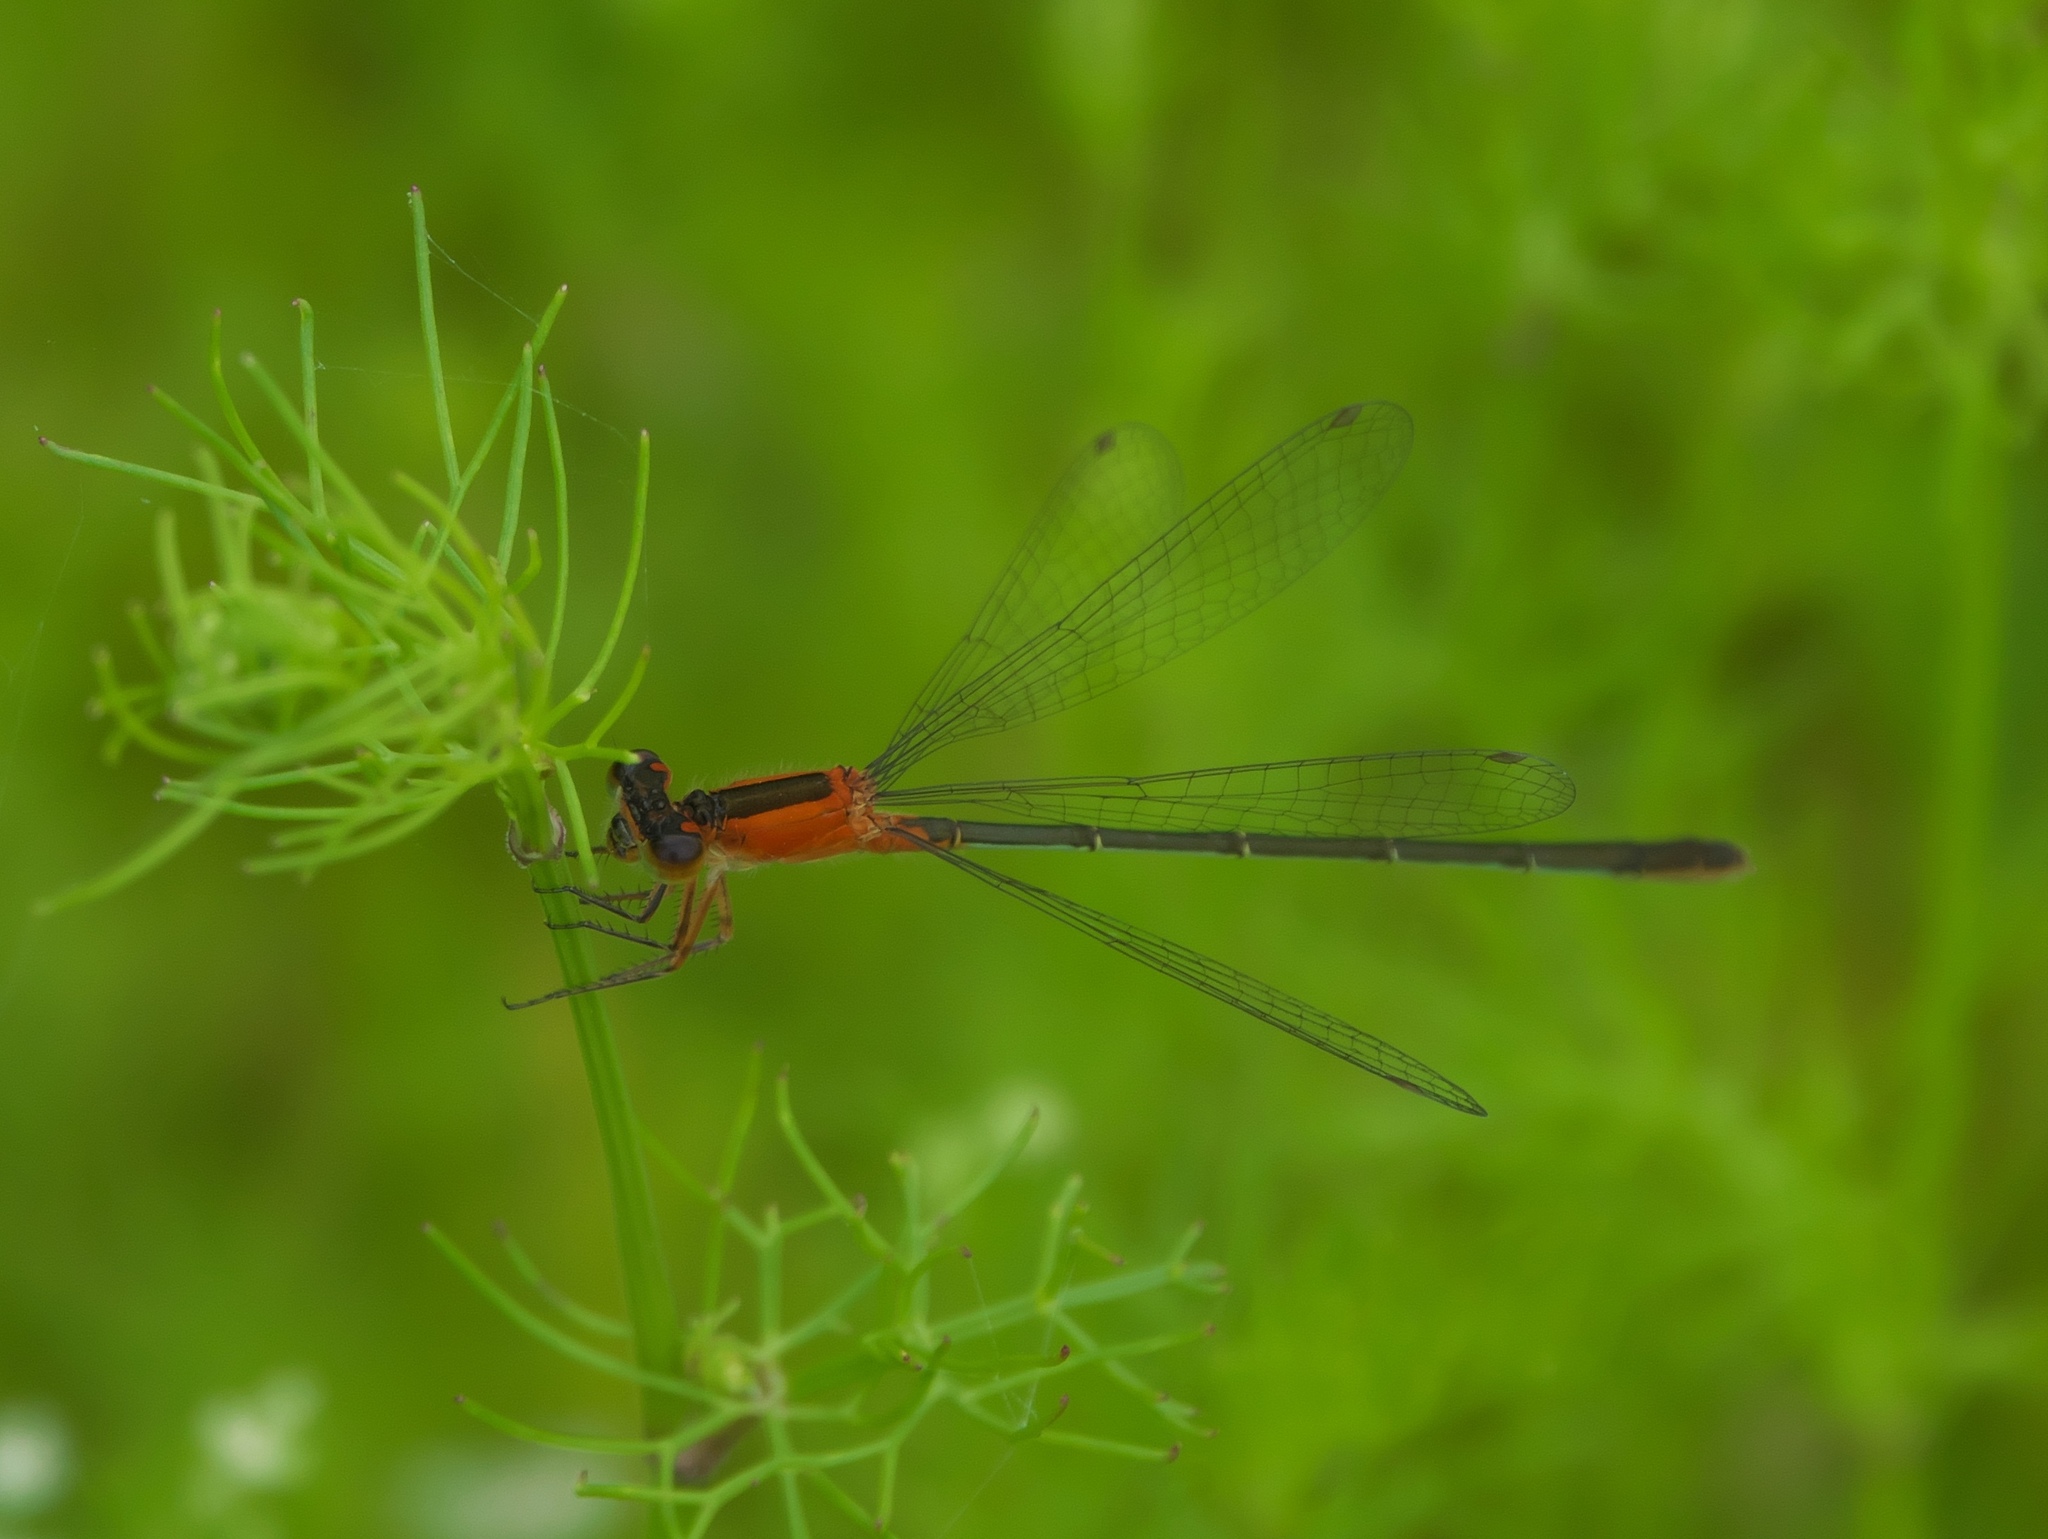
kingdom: Animalia
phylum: Arthropoda
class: Insecta
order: Odonata
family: Coenagrionidae
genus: Ischnura
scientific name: Ischnura ramburii
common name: Rambur's forktail
